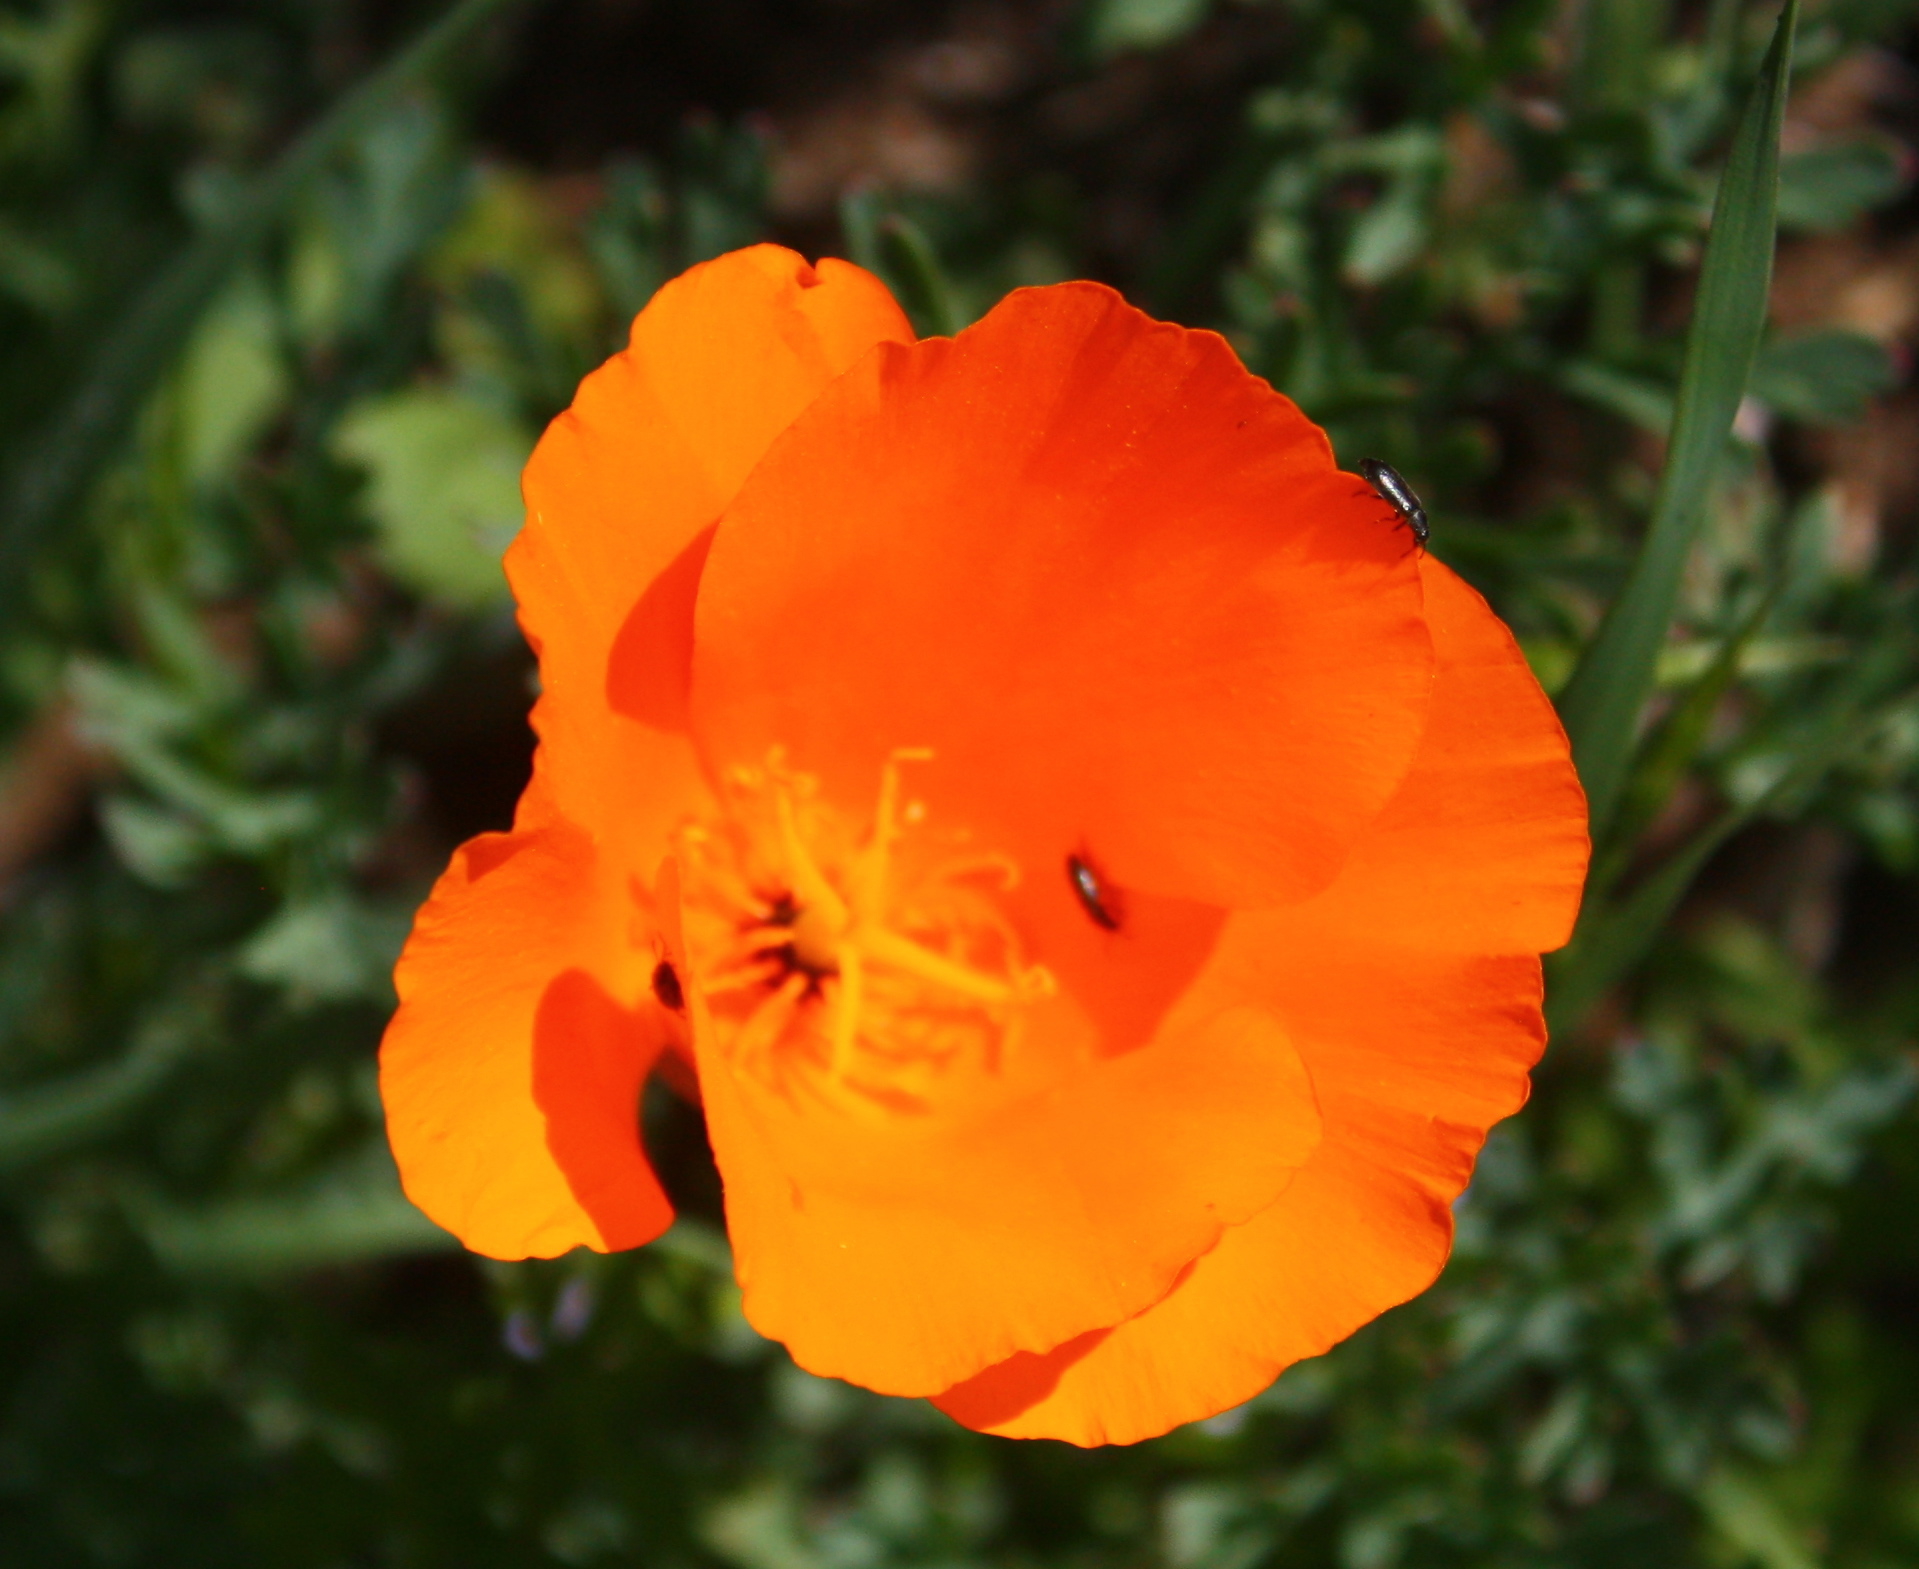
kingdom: Plantae
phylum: Tracheophyta
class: Magnoliopsida
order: Ranunculales
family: Papaveraceae
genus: Eschscholzia
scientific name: Eschscholzia californica
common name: California poppy
